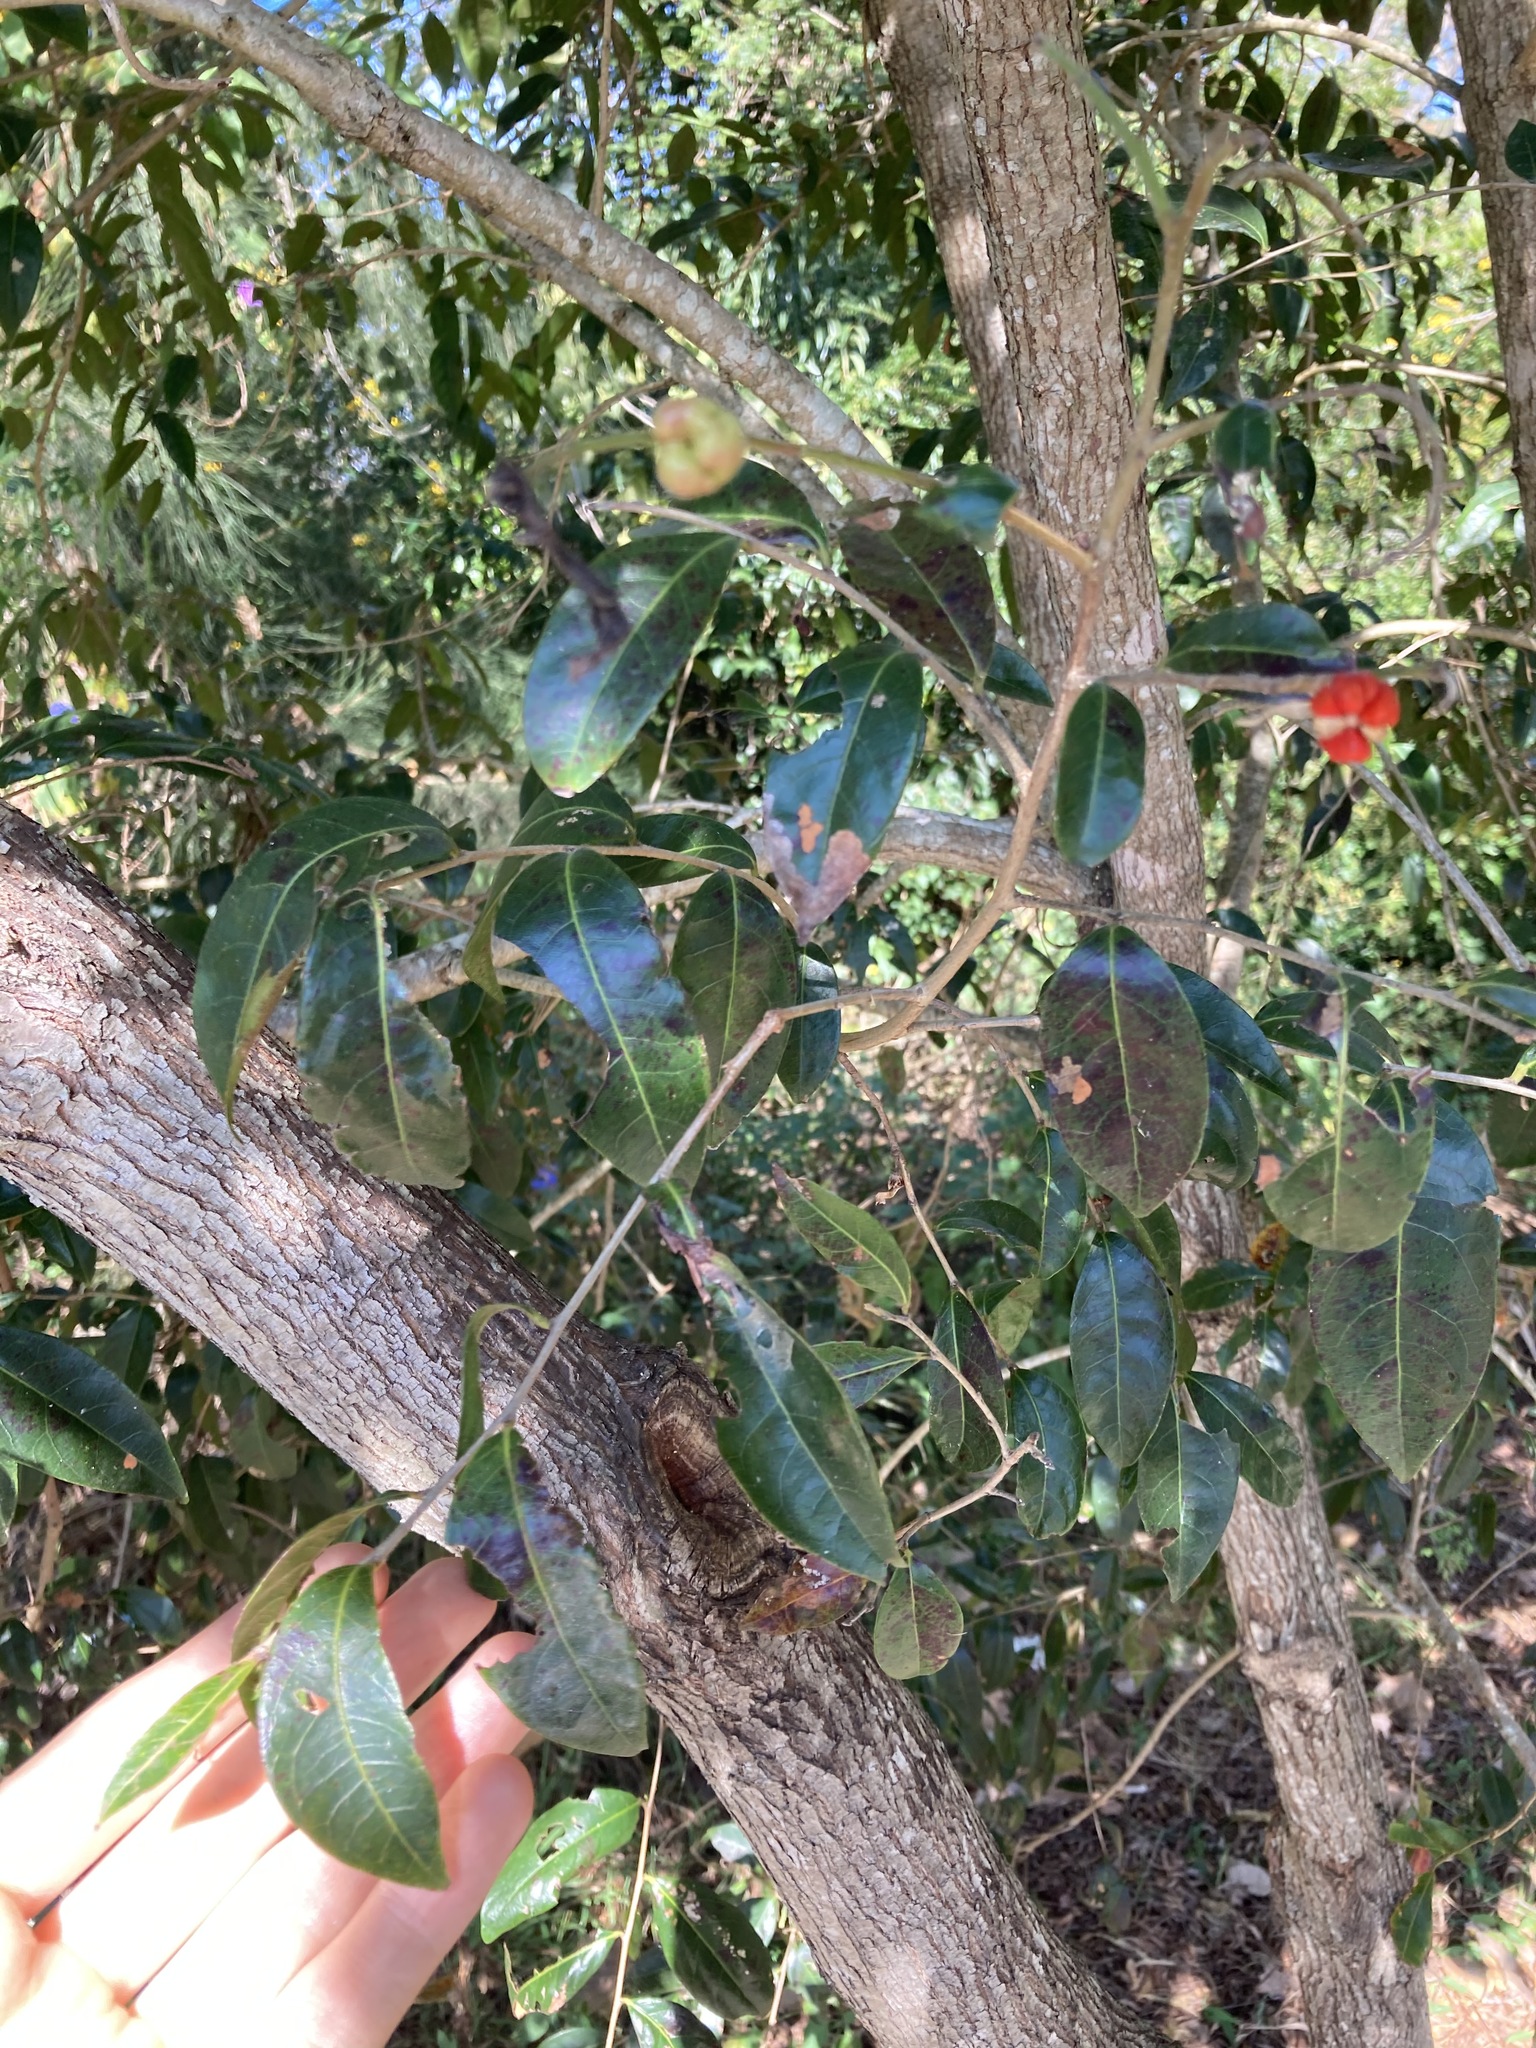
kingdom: Plantae
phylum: Tracheophyta
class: Magnoliopsida
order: Malpighiales
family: Phyllanthaceae
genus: Glochidion
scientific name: Glochidion ferdinandi
